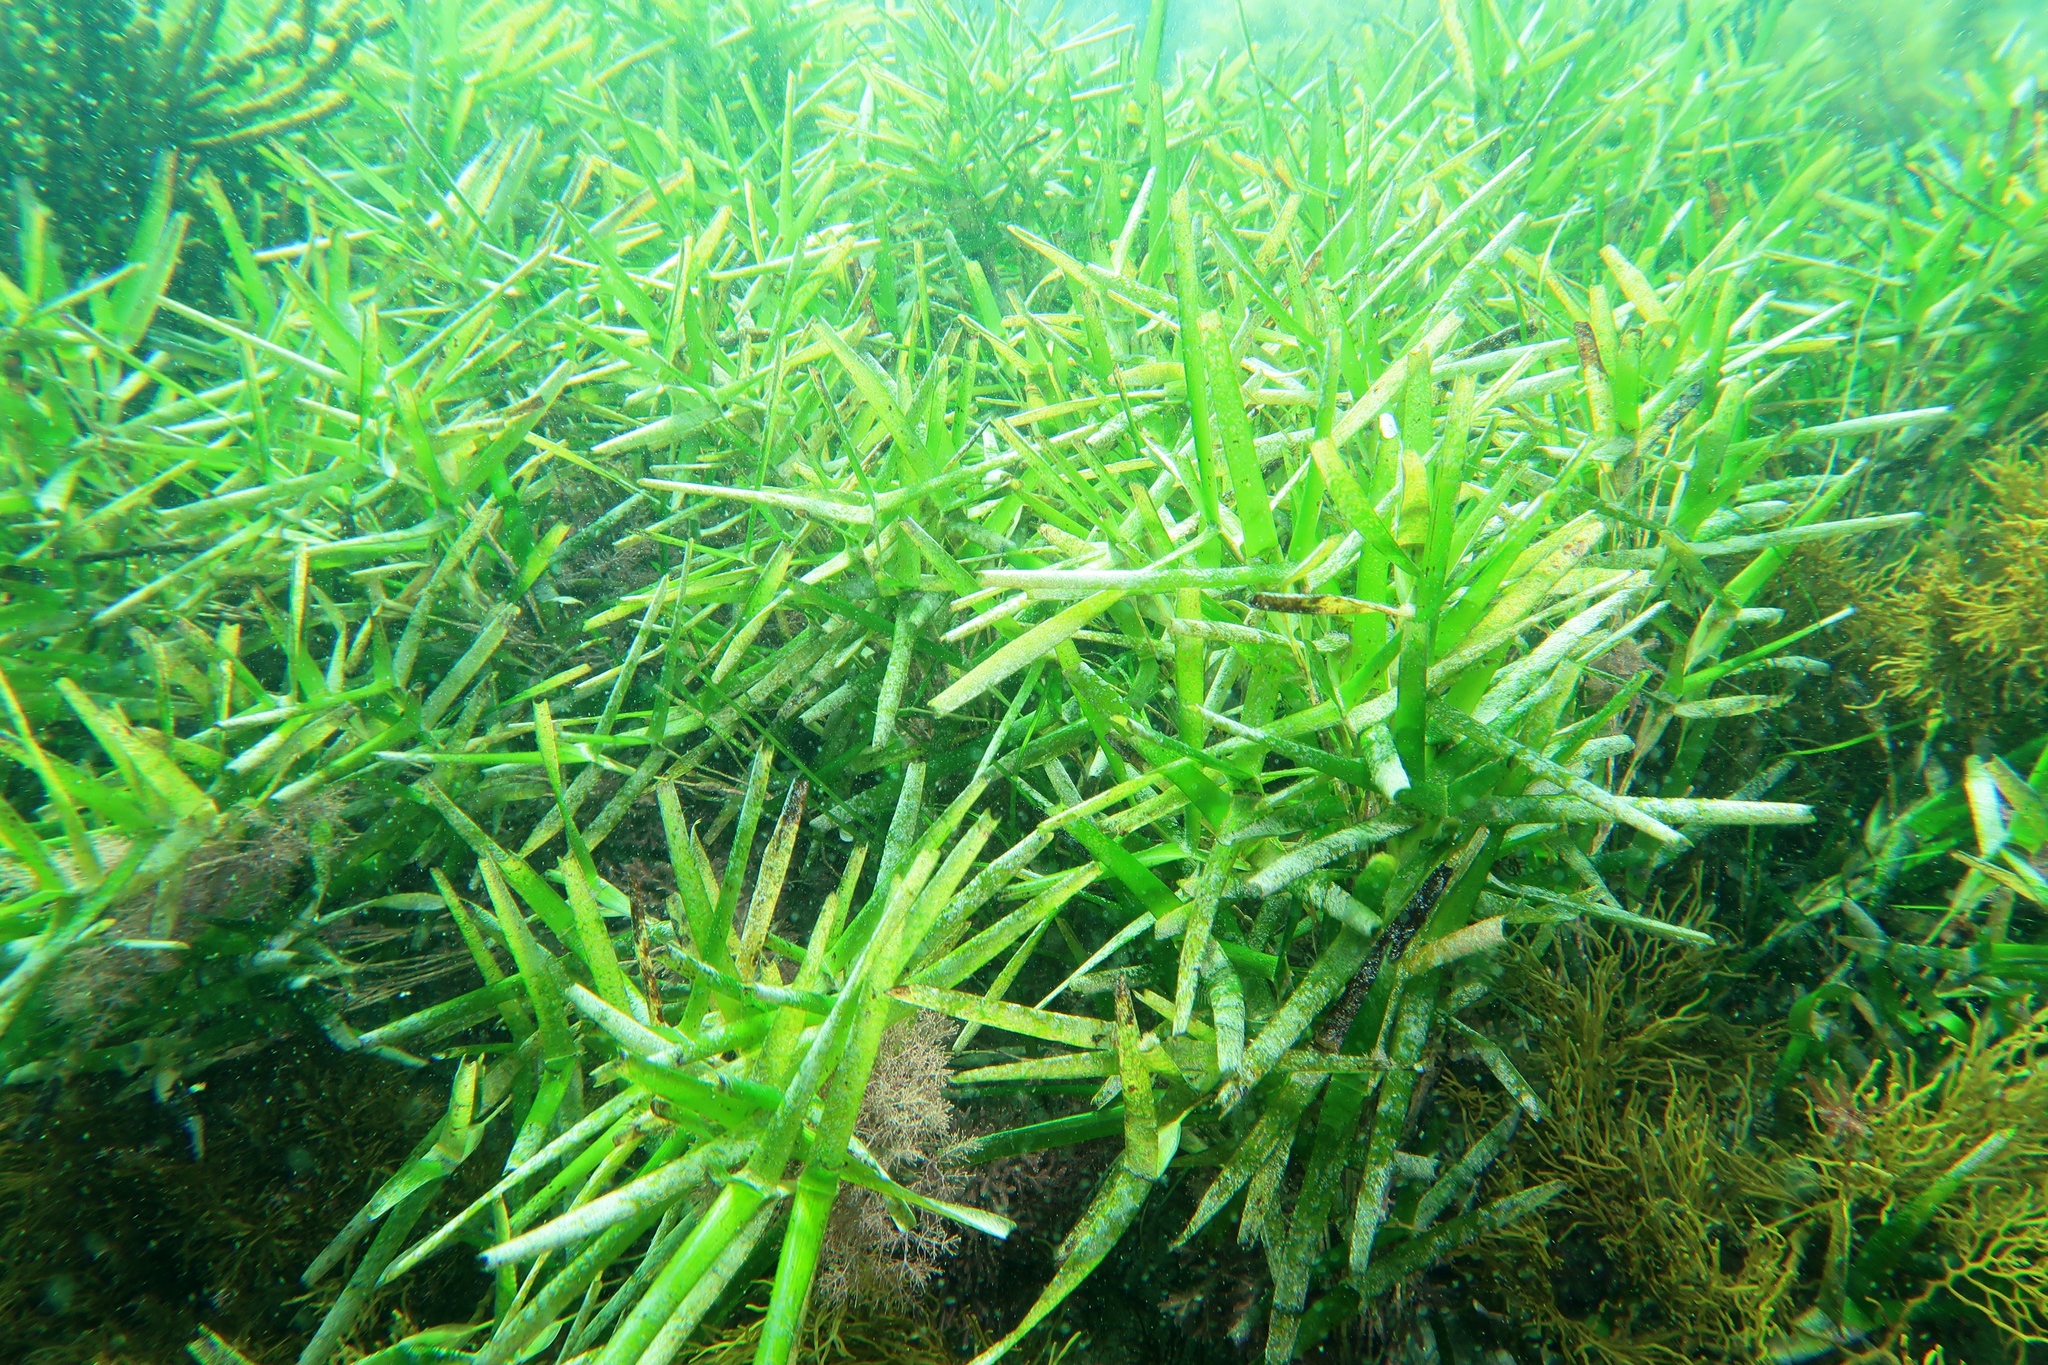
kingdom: Plantae
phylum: Tracheophyta
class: Liliopsida
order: Alismatales
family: Cymodoceaceae
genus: Amphibolis
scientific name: Amphibolis griffithii
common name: Species code: ag
